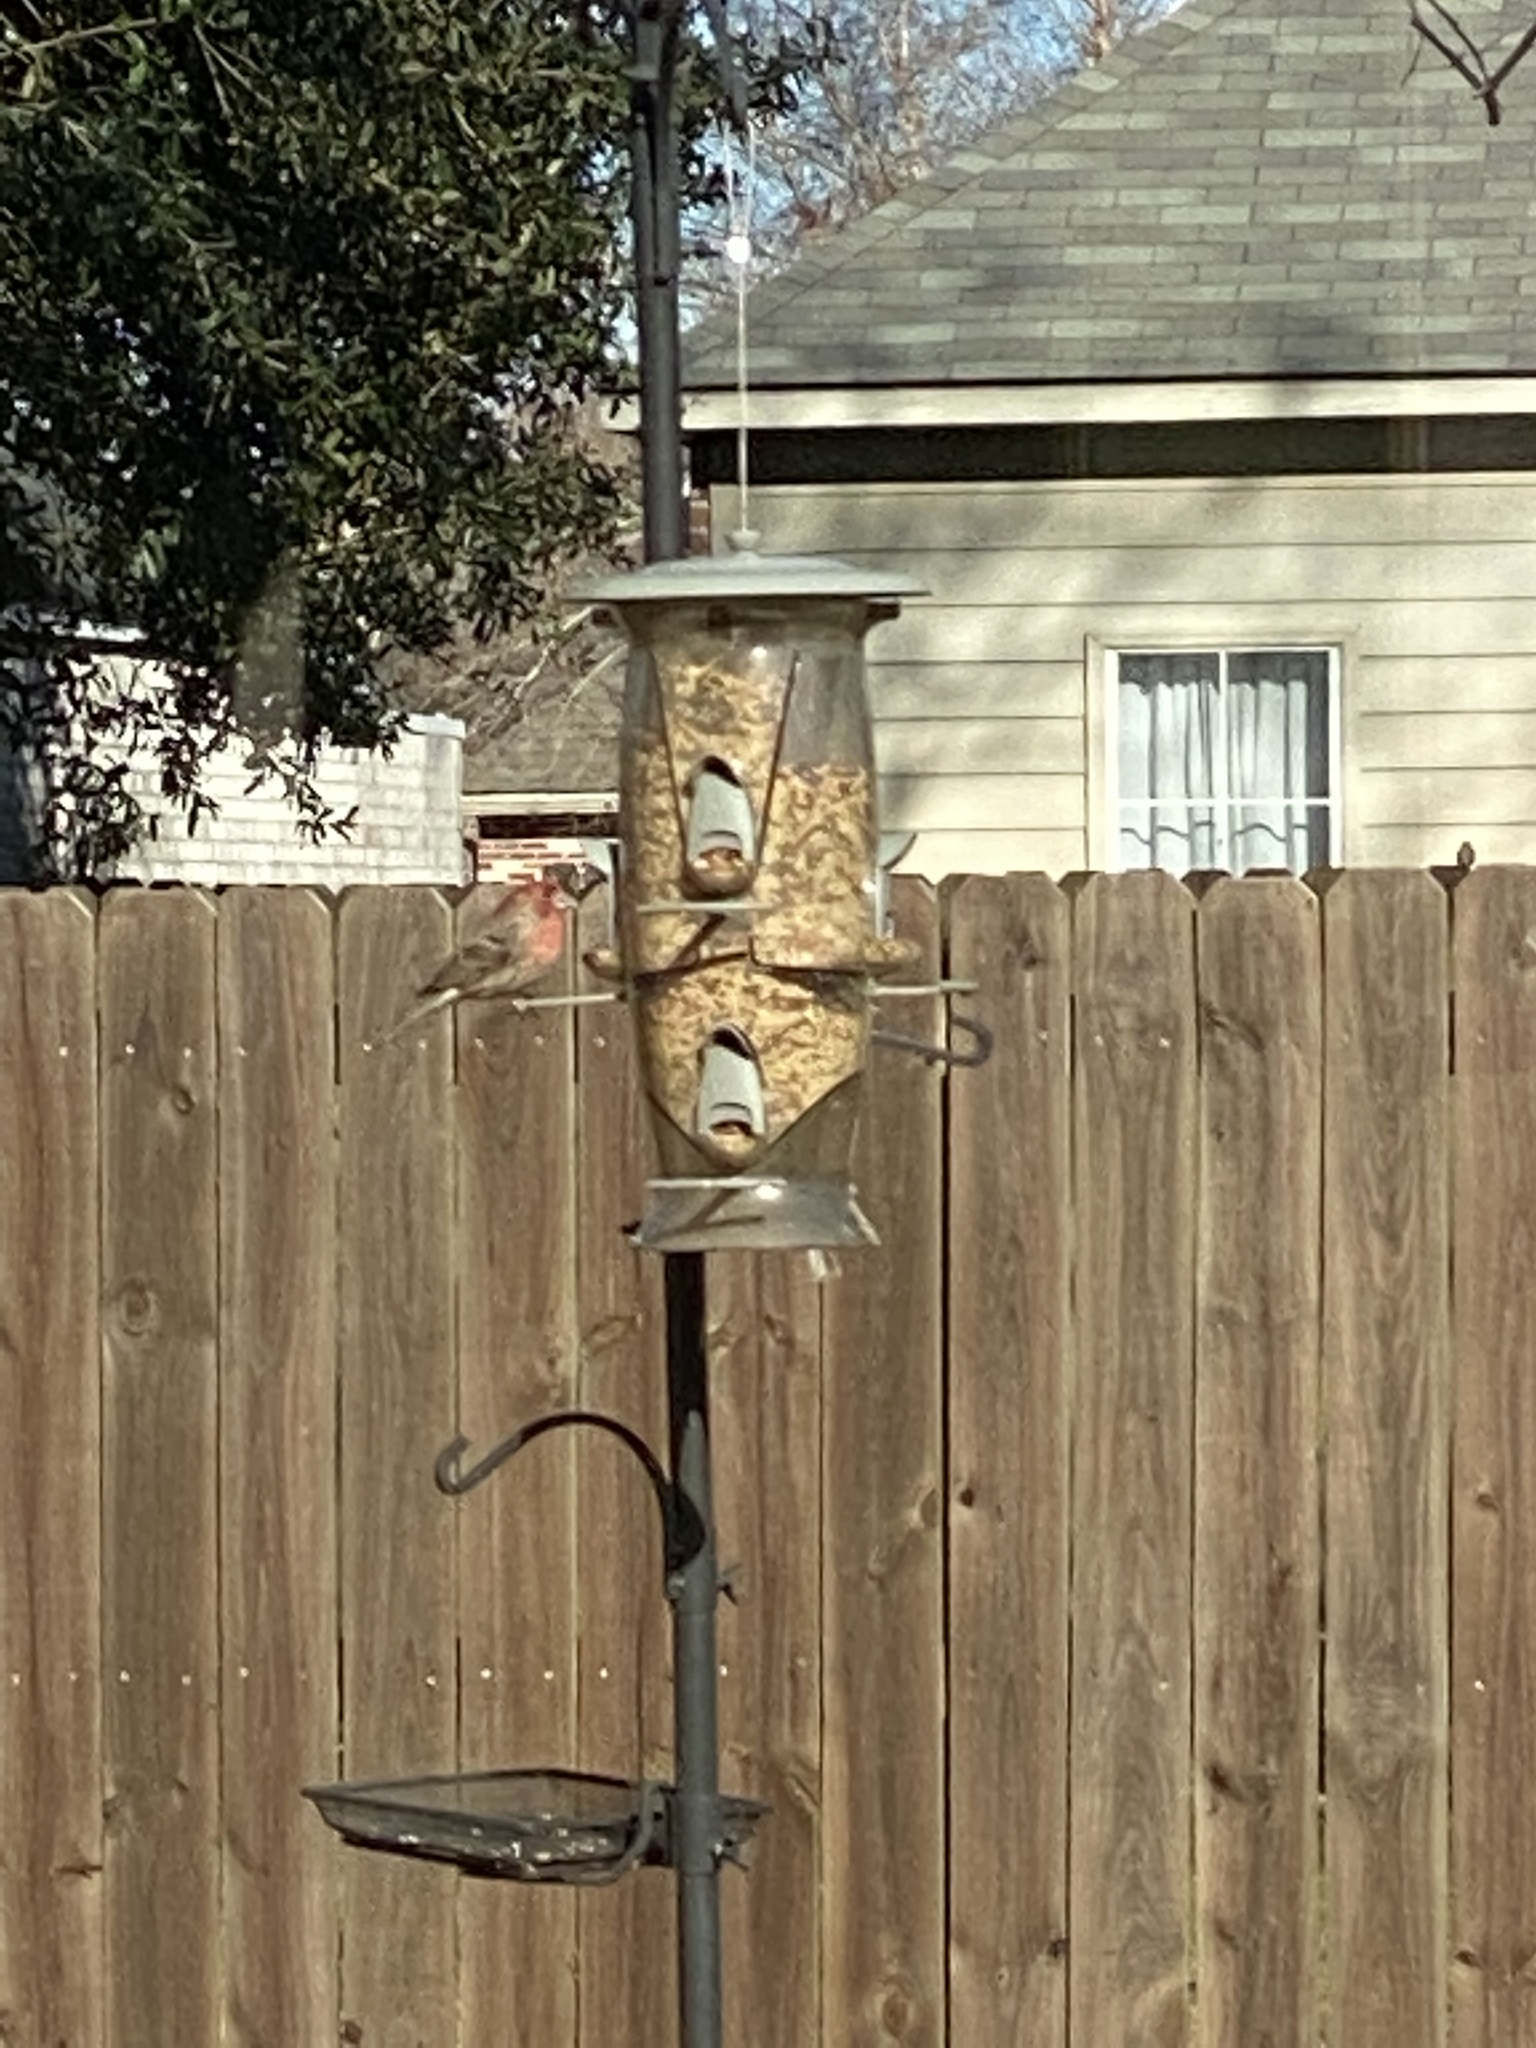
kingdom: Animalia
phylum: Chordata
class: Aves
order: Passeriformes
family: Fringillidae
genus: Haemorhous
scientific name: Haemorhous mexicanus
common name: House finch
